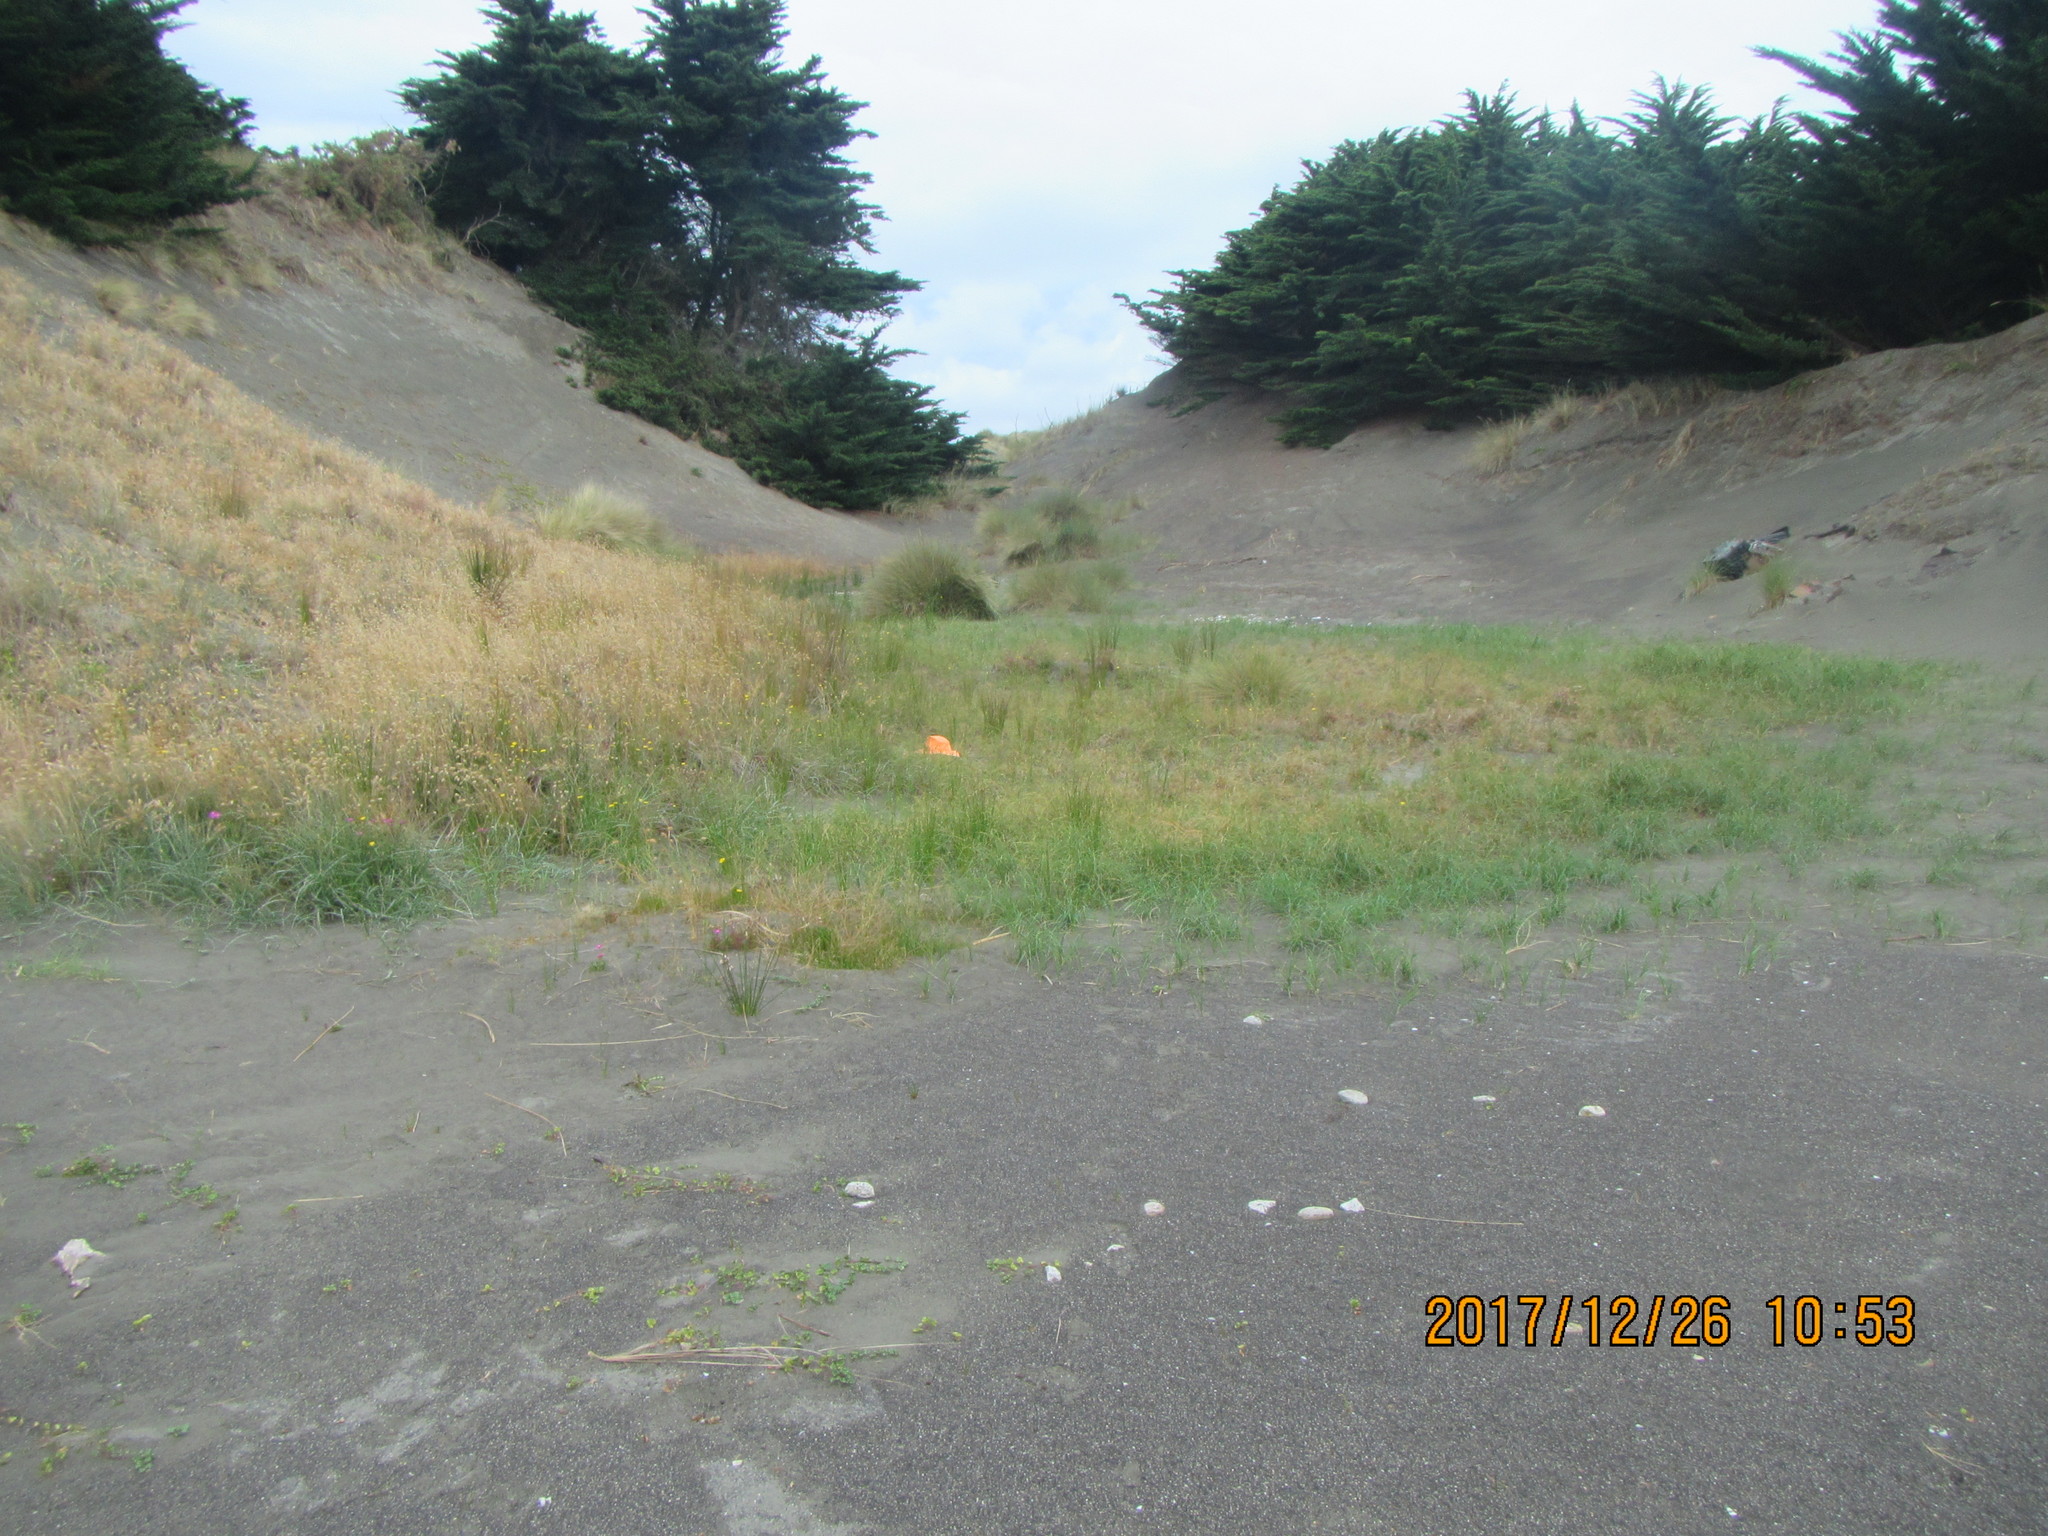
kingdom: Animalia
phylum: Mollusca
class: Gastropoda
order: Stylommatophora
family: Geomitridae
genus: Xeroplexa
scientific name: Xeroplexa intersecta
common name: Wrinkled snail
